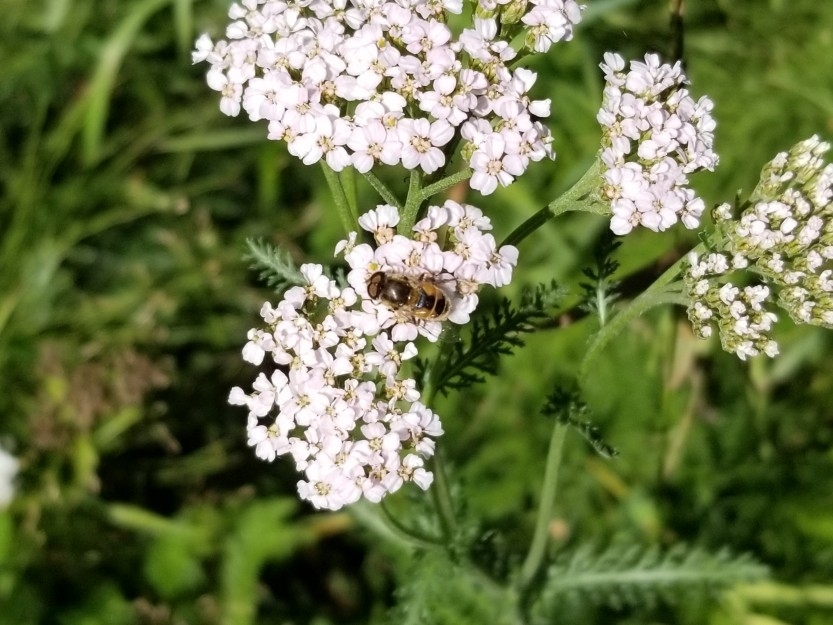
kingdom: Animalia
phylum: Arthropoda
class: Insecta
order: Diptera
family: Syrphidae
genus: Eristalis
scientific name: Eristalis arbustorum
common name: Hover fly
